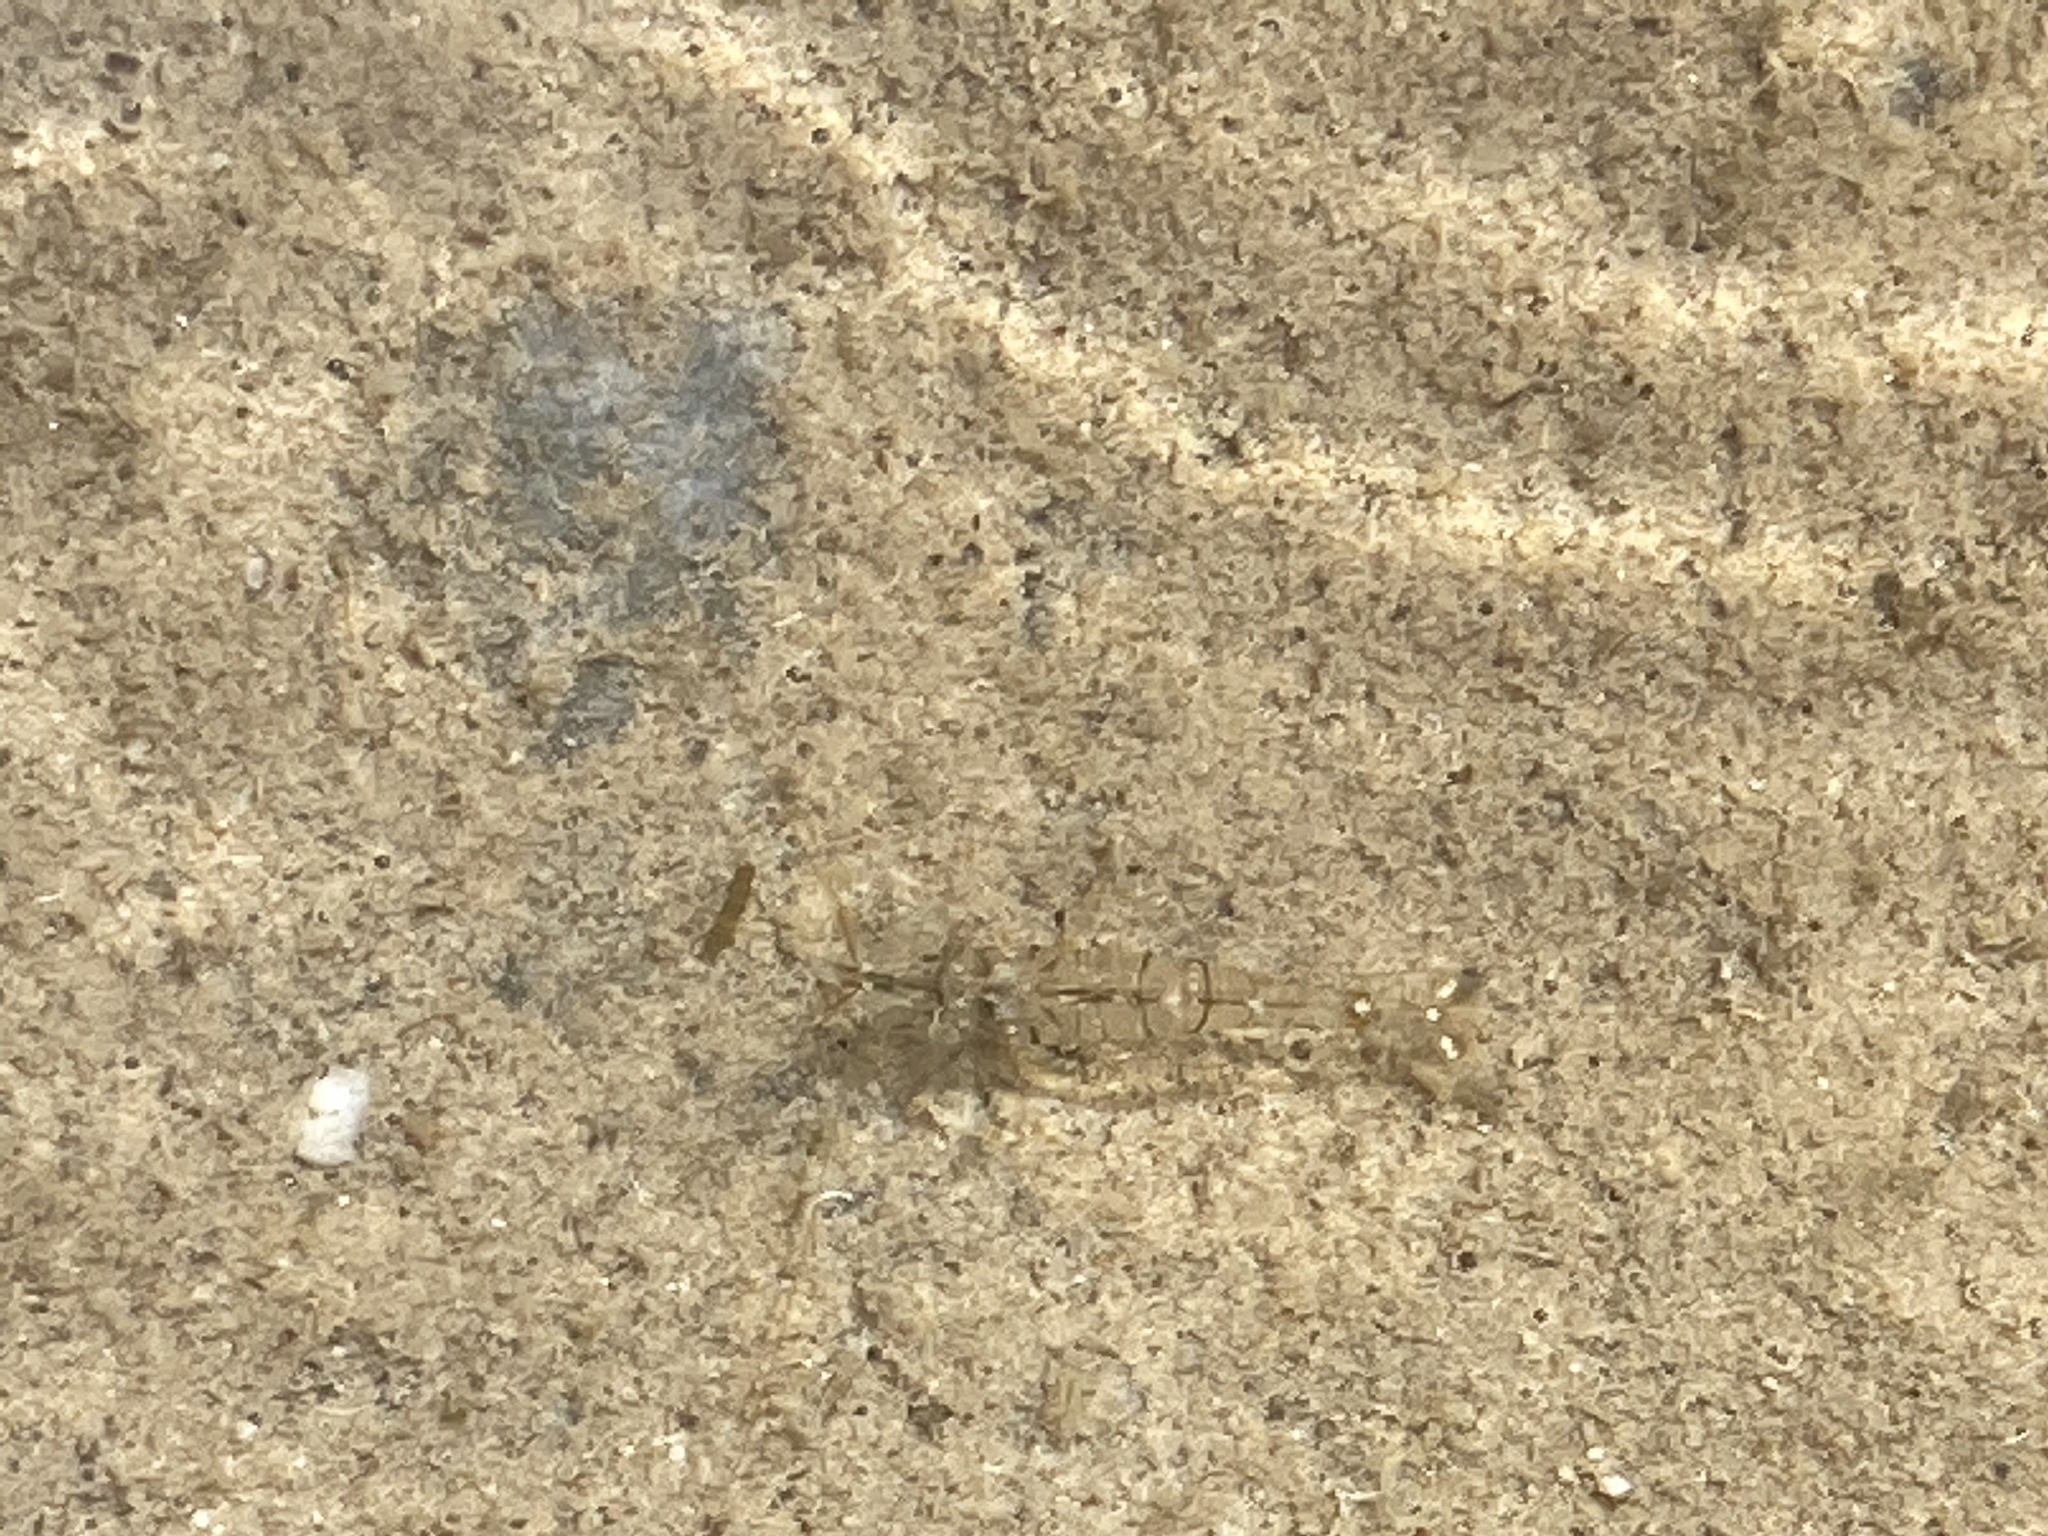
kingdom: Animalia
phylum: Arthropoda
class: Malacostraca
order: Decapoda
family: Palaemonidae
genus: Palaemon
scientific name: Palaemon
